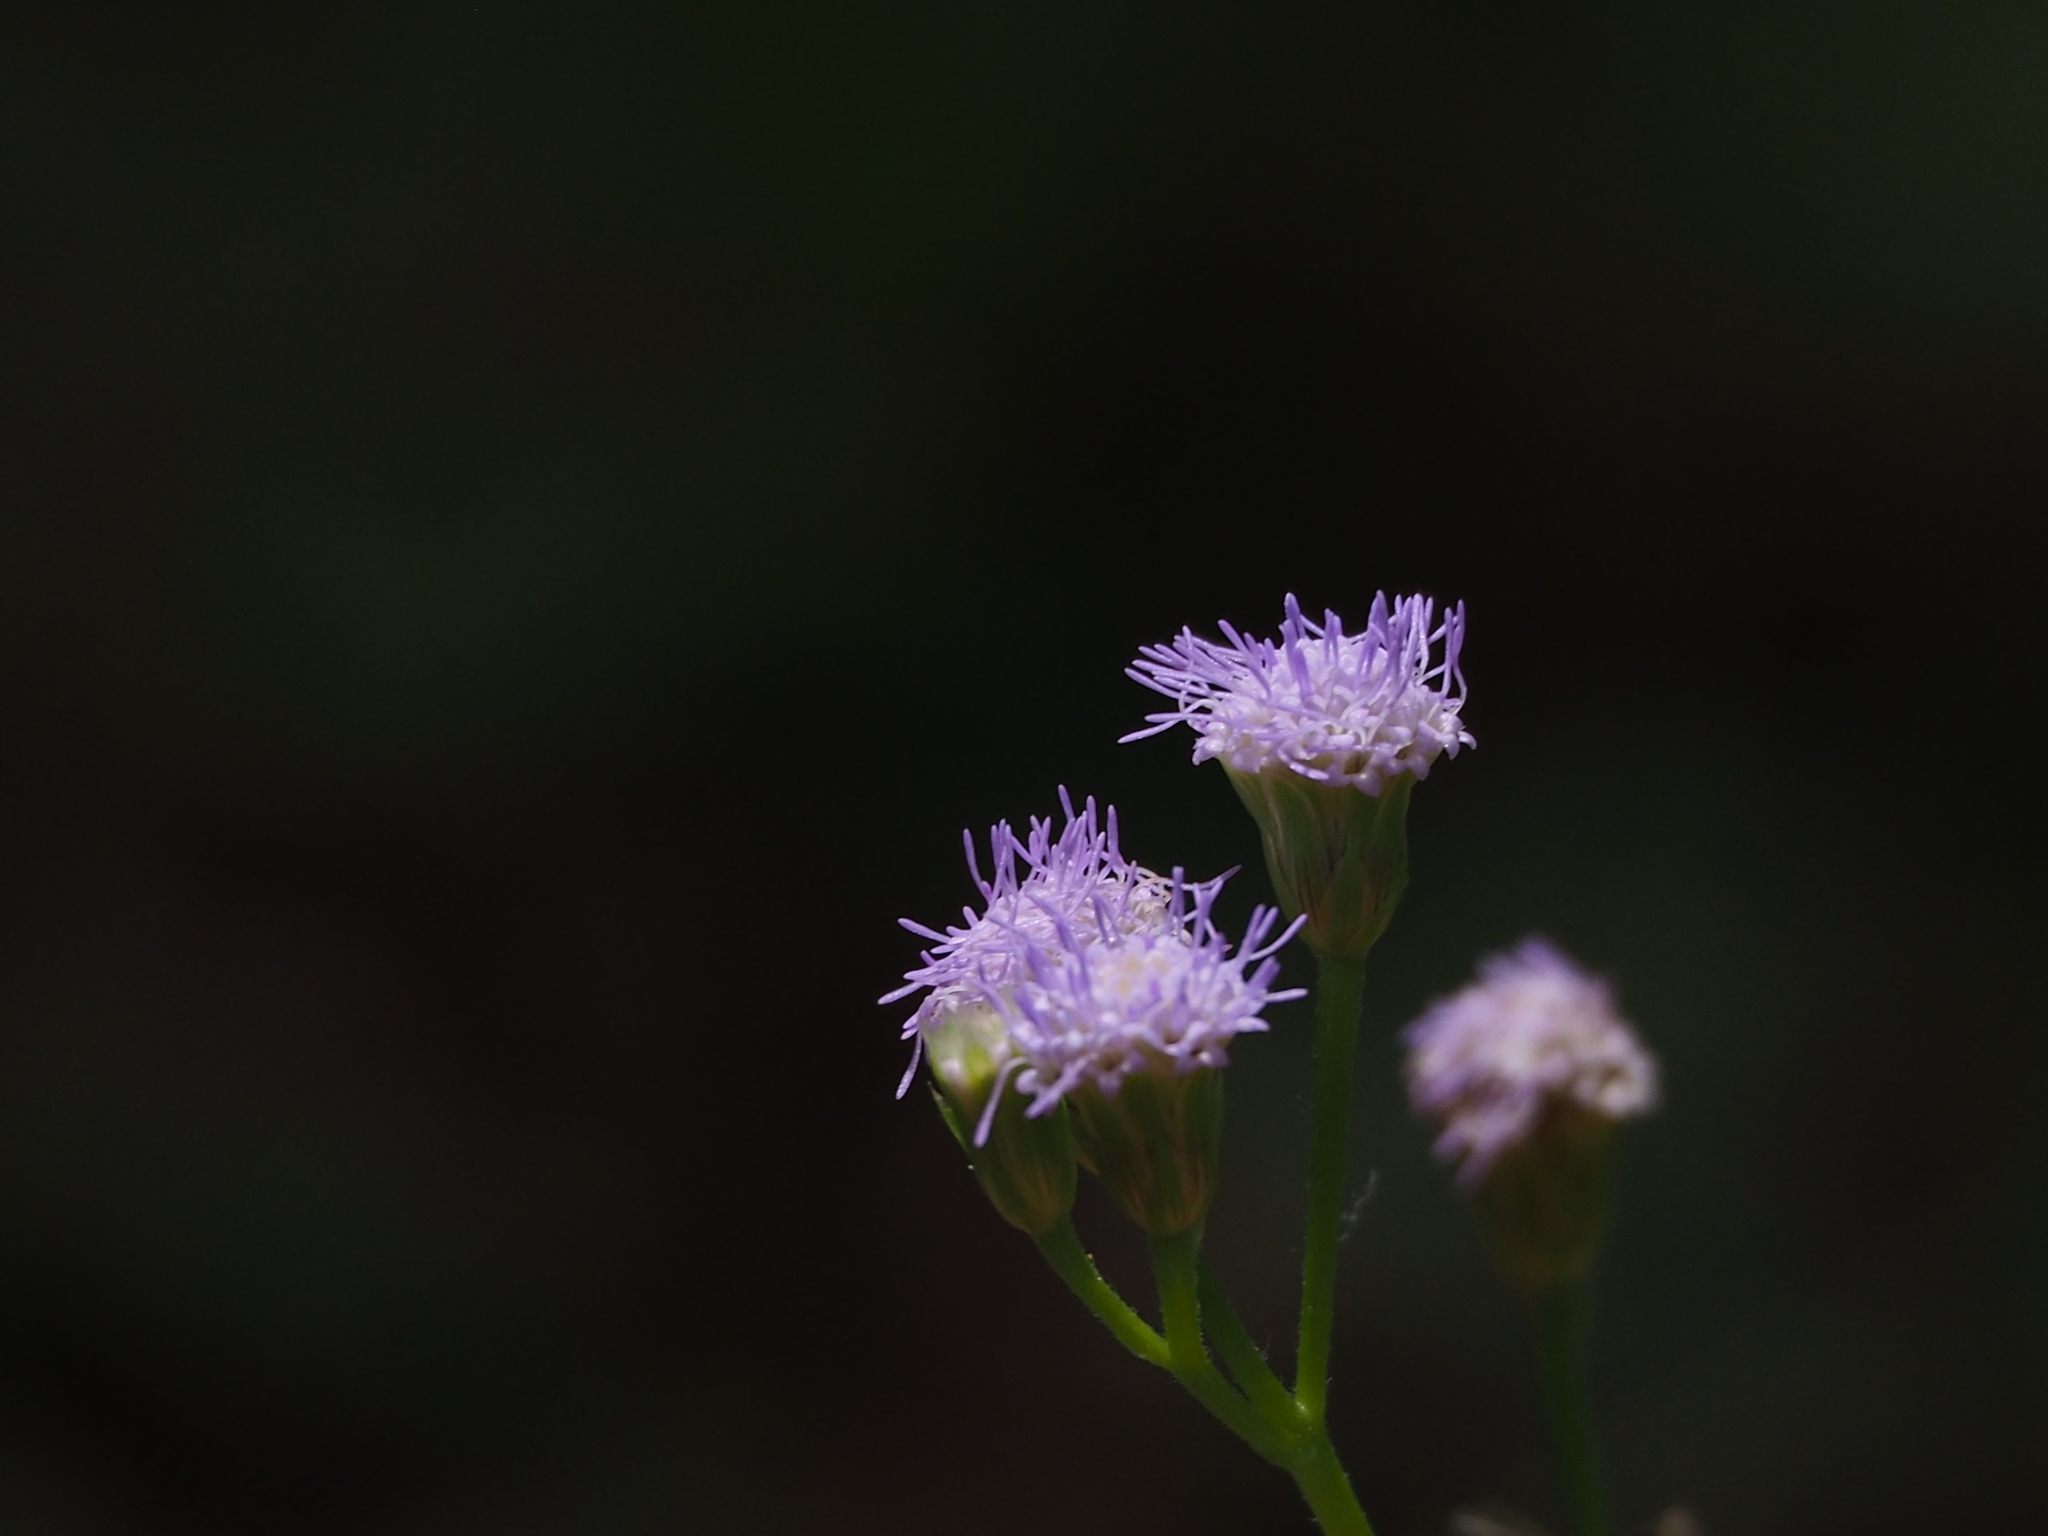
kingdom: Plantae
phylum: Tracheophyta
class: Magnoliopsida
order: Asterales
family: Asteraceae
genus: Praxelis
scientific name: Praxelis clematidea
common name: Praxelis
